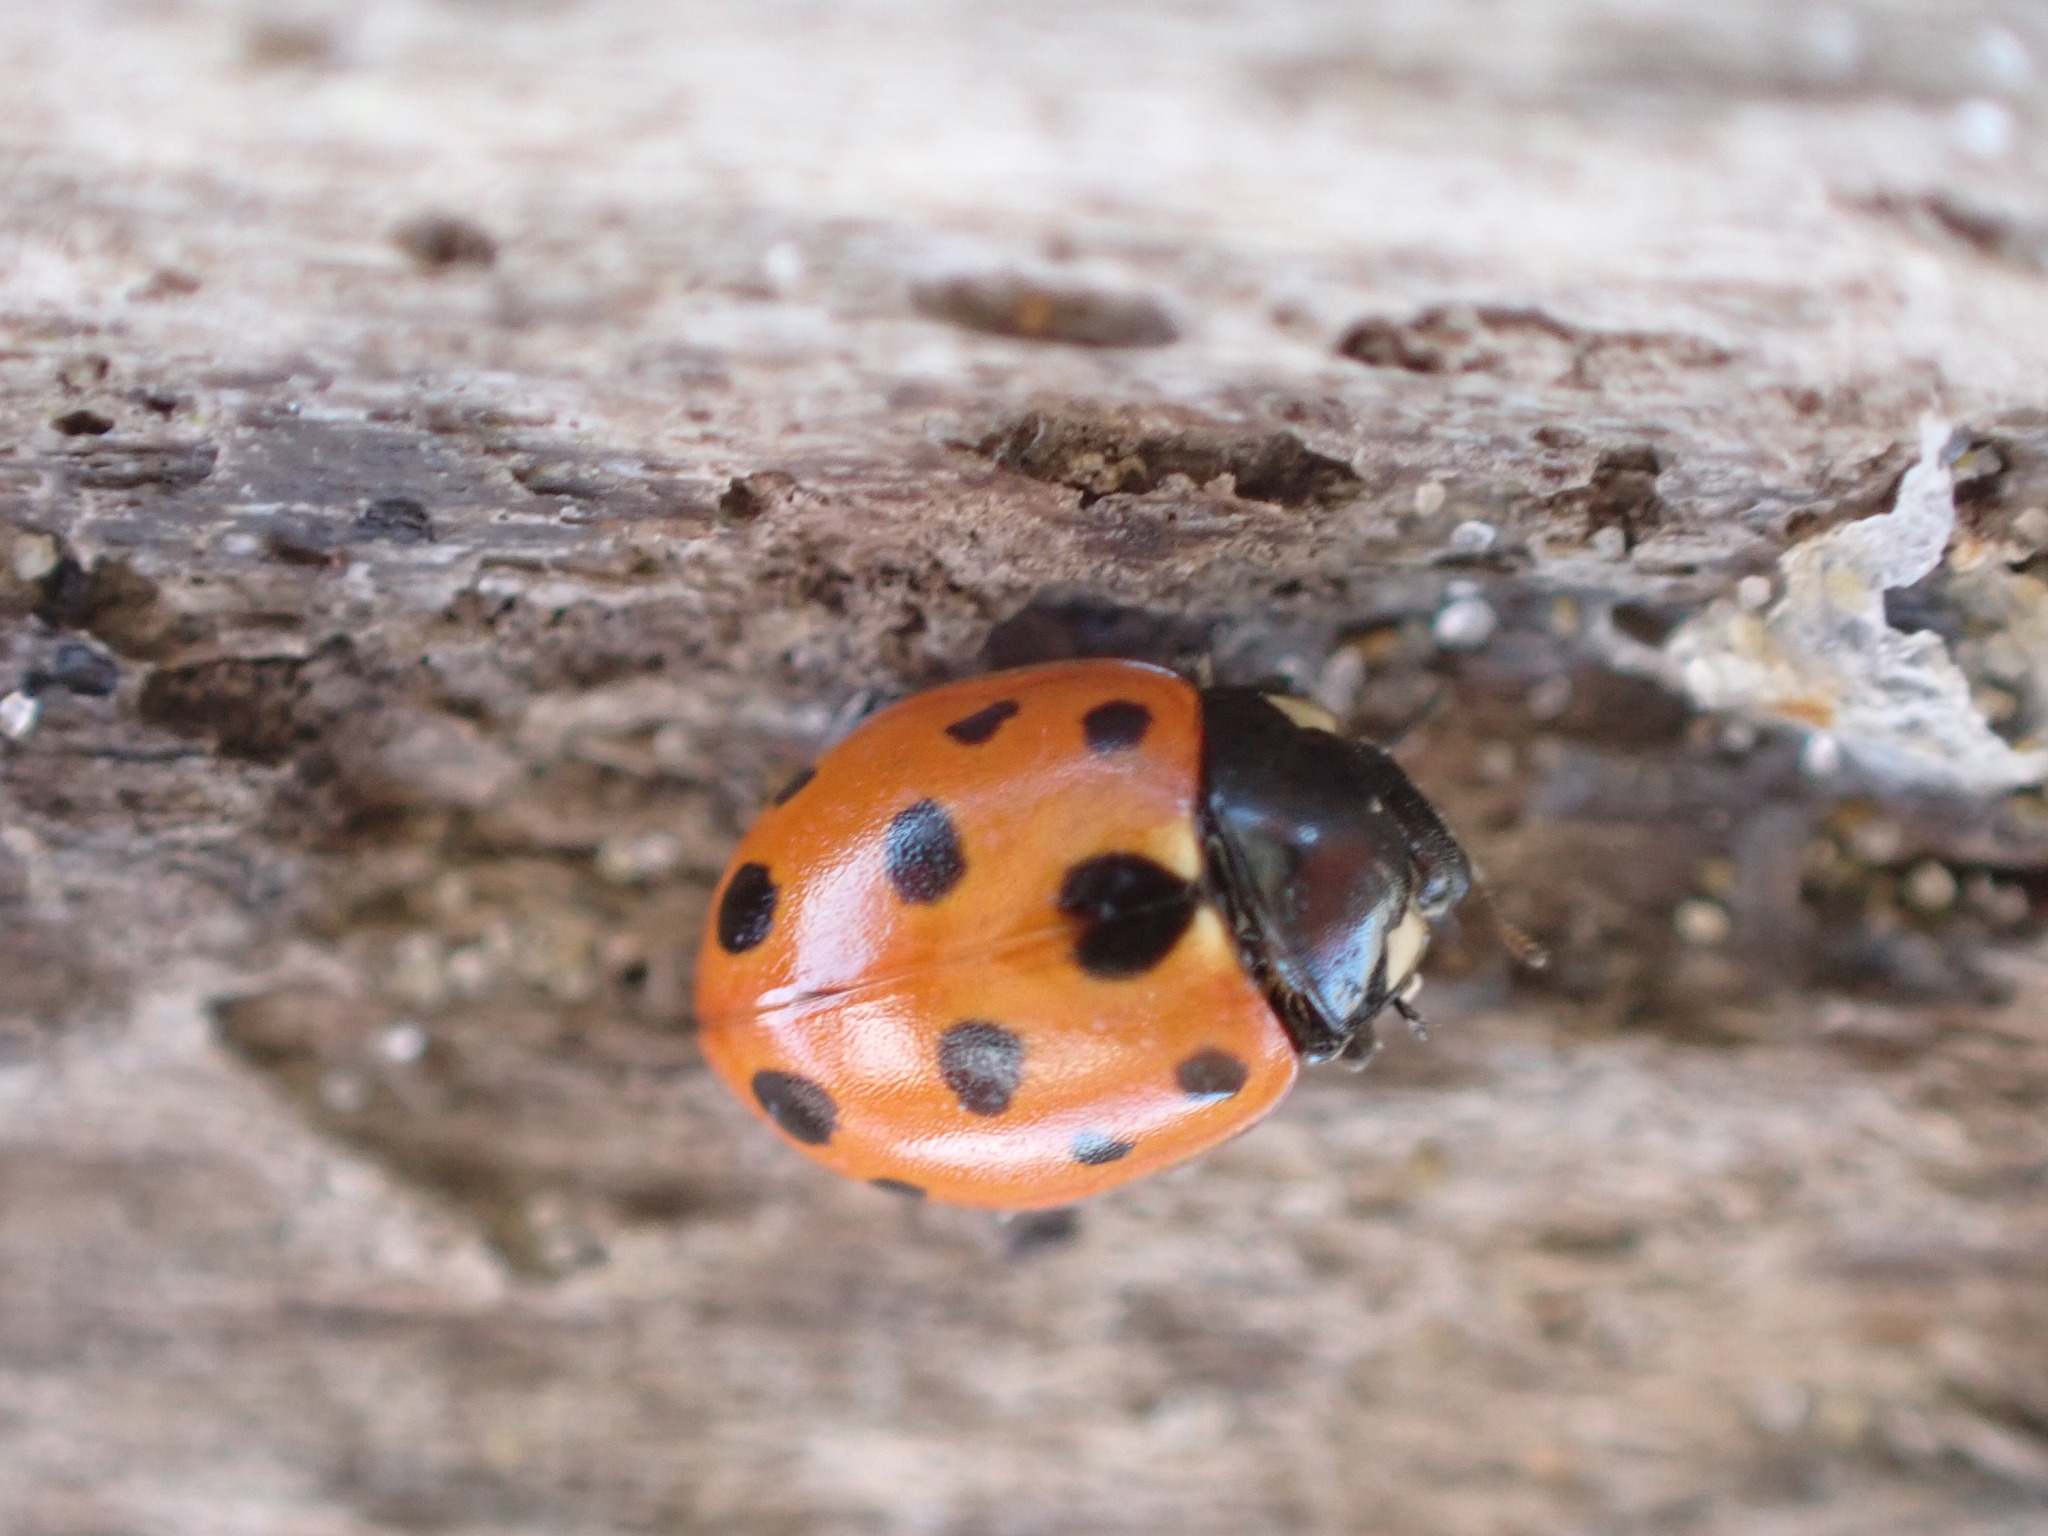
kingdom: Animalia
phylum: Arthropoda
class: Insecta
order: Coleoptera
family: Coccinellidae
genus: Coccinella
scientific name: Coccinella undecimpunctata
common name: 11-spot ladybird
